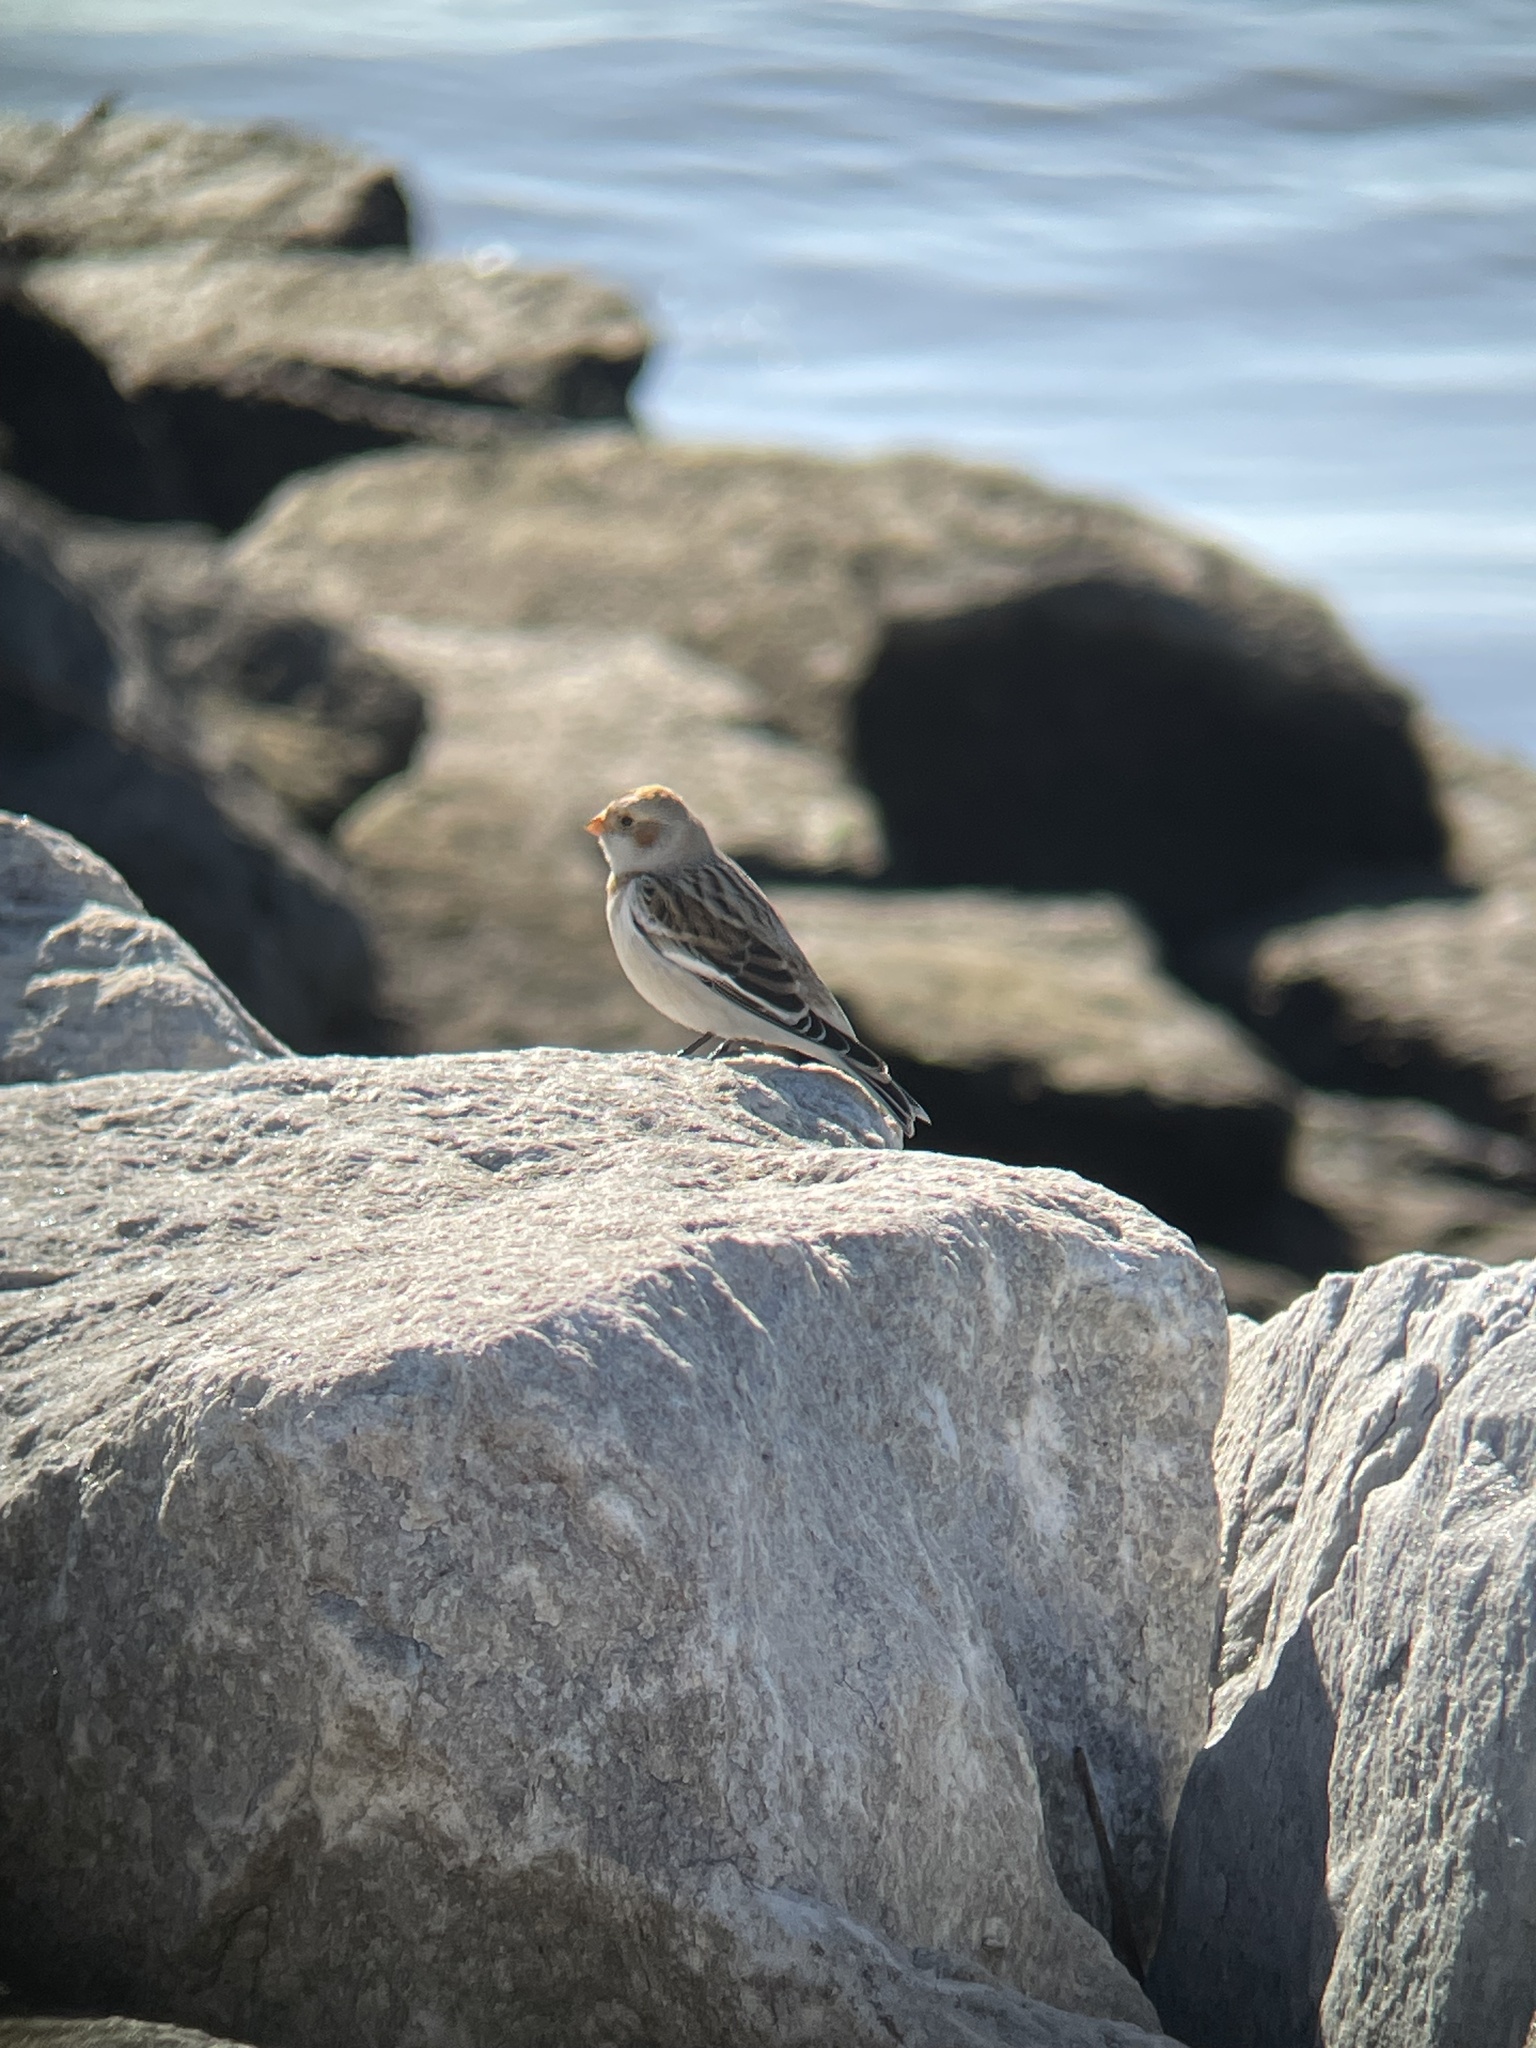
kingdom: Animalia
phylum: Chordata
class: Aves
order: Passeriformes
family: Calcariidae
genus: Plectrophenax
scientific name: Plectrophenax nivalis
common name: Snow bunting
